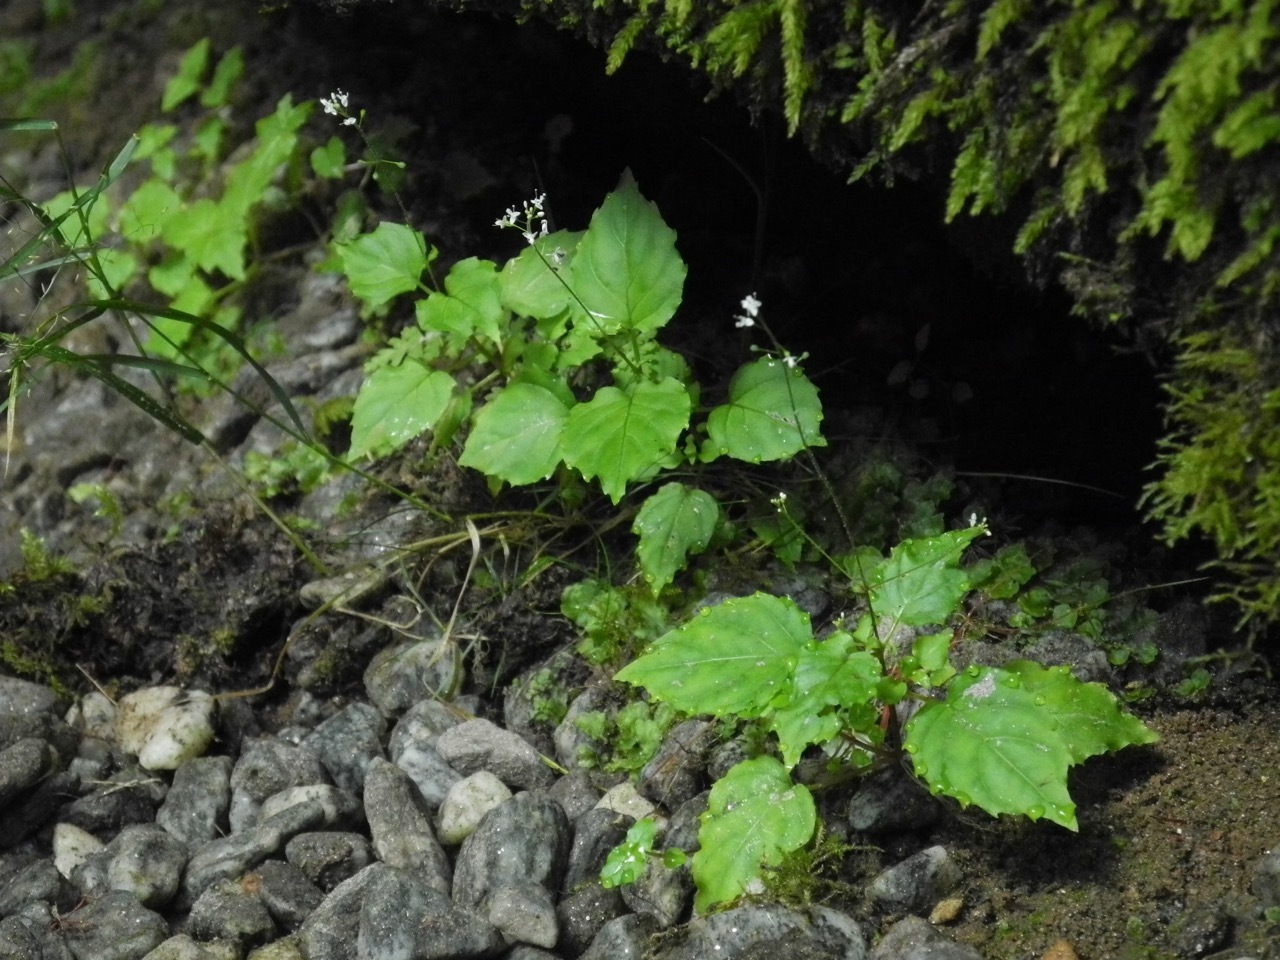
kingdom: Plantae
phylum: Tracheophyta
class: Magnoliopsida
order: Myrtales
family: Onagraceae
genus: Circaea
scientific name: Circaea alpina
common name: Alpine enchanter's-nightshade
